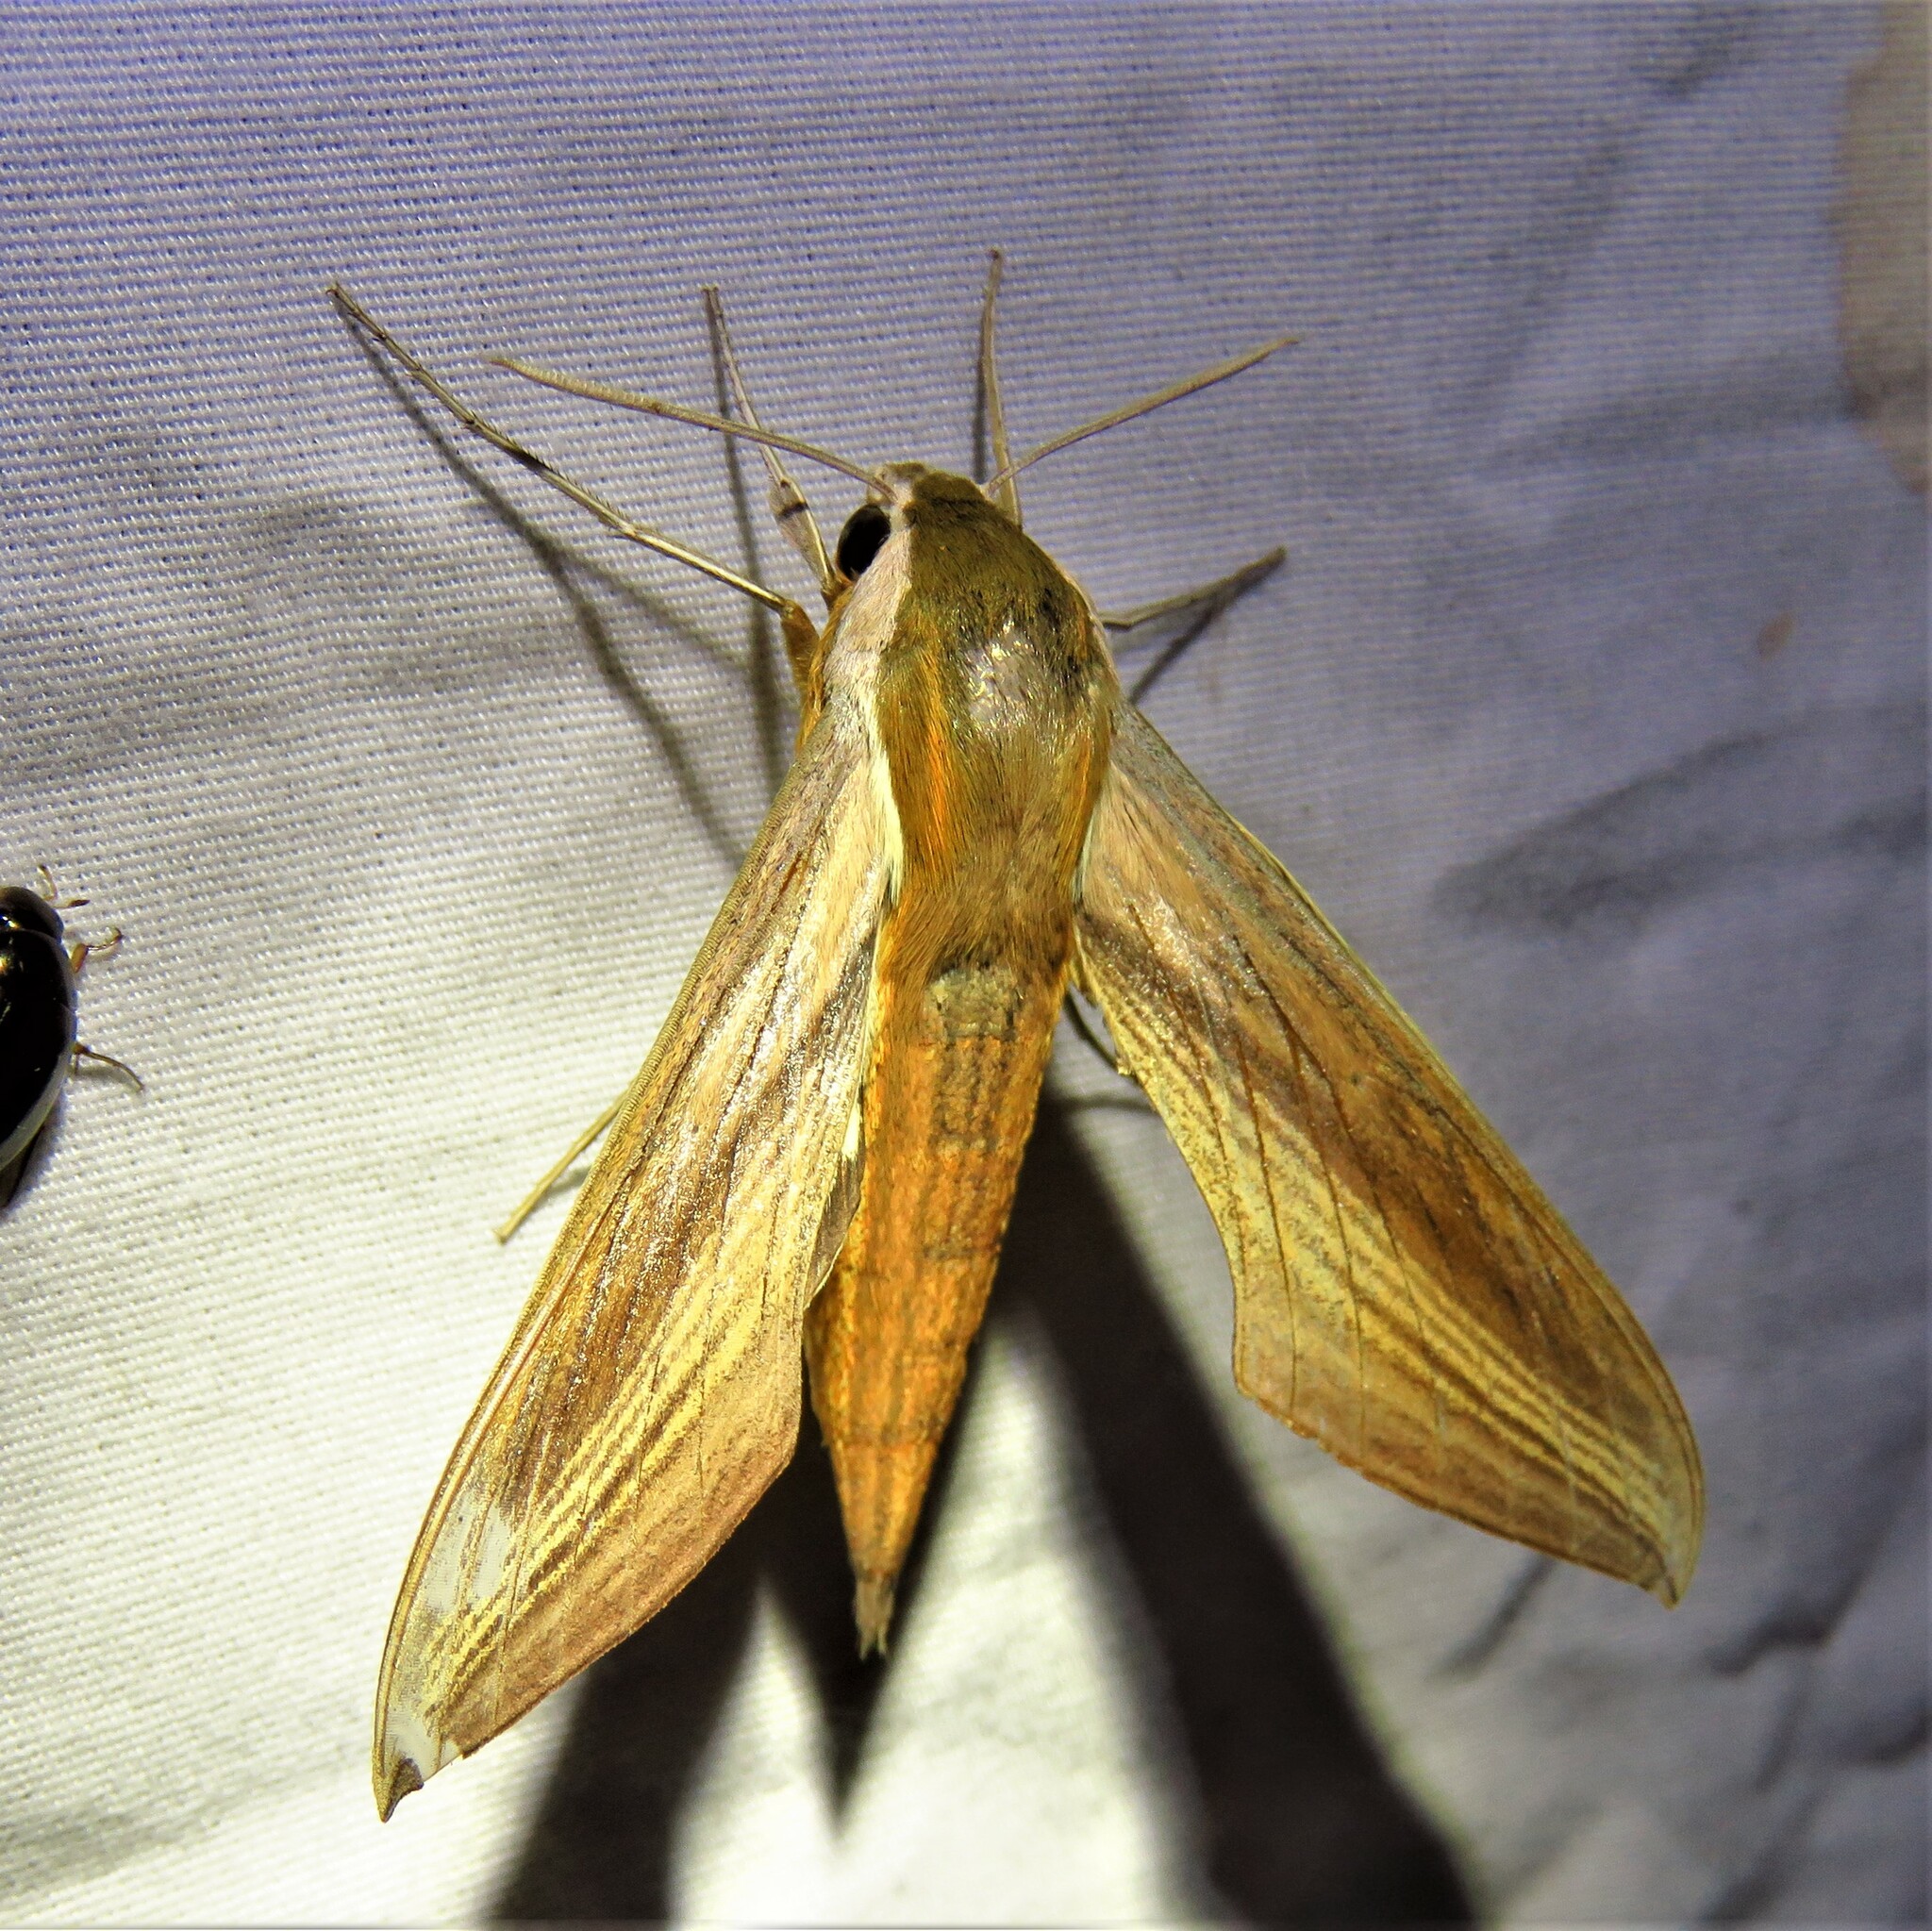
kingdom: Animalia
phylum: Arthropoda
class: Insecta
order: Lepidoptera
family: Sphingidae
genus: Xylophanes
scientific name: Xylophanes tersa
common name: Tersa sphinx
